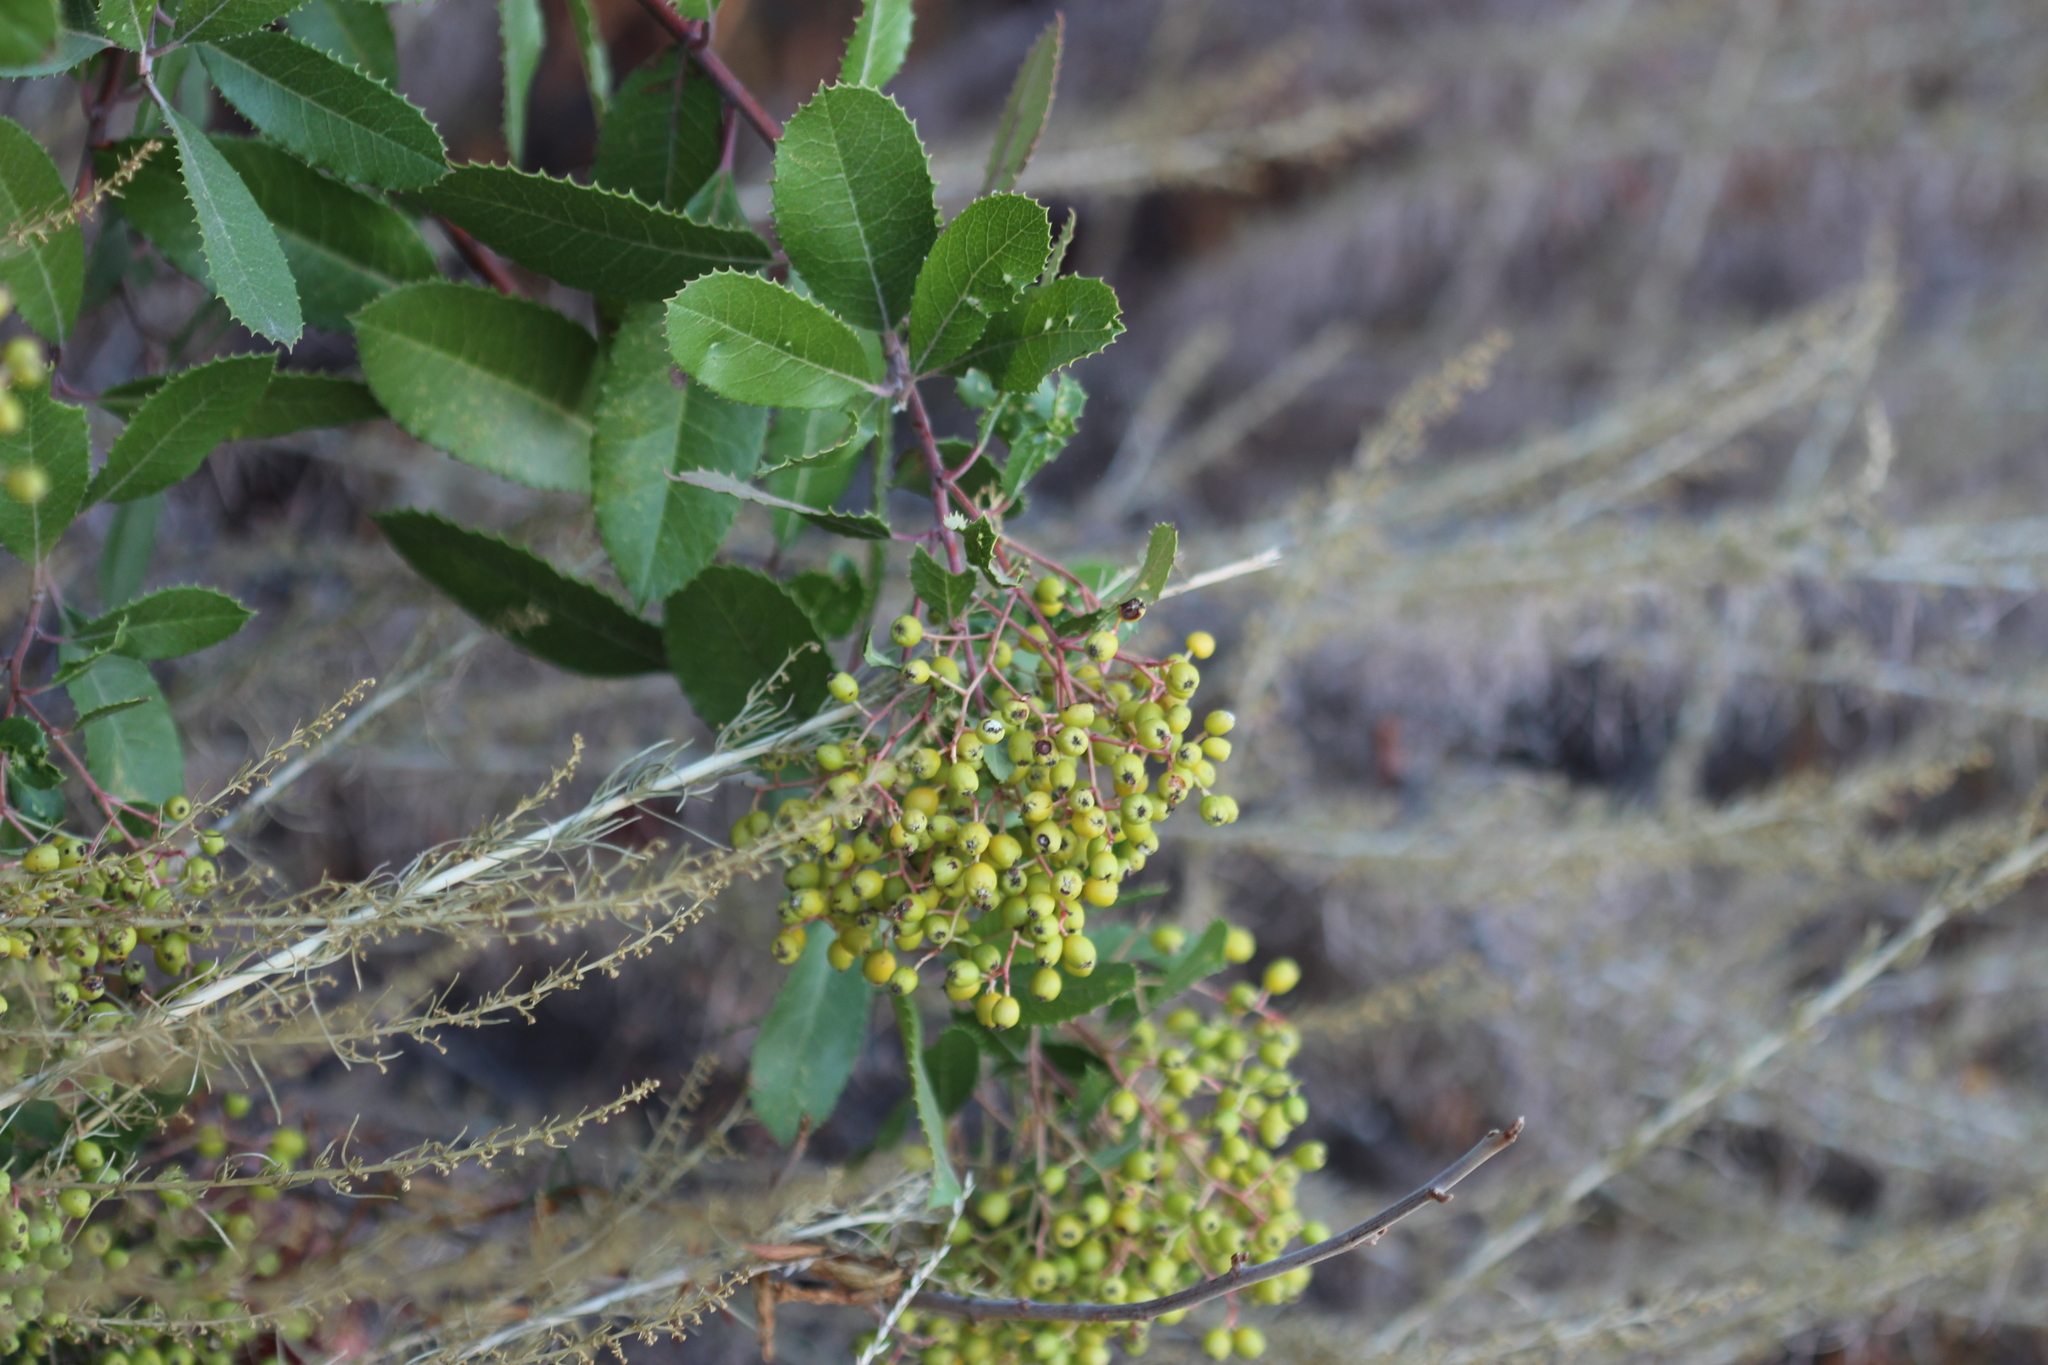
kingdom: Animalia
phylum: Arthropoda
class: Insecta
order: Diptera
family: Cecidomyiidae
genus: Asphondylia
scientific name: Asphondylia photiniae
